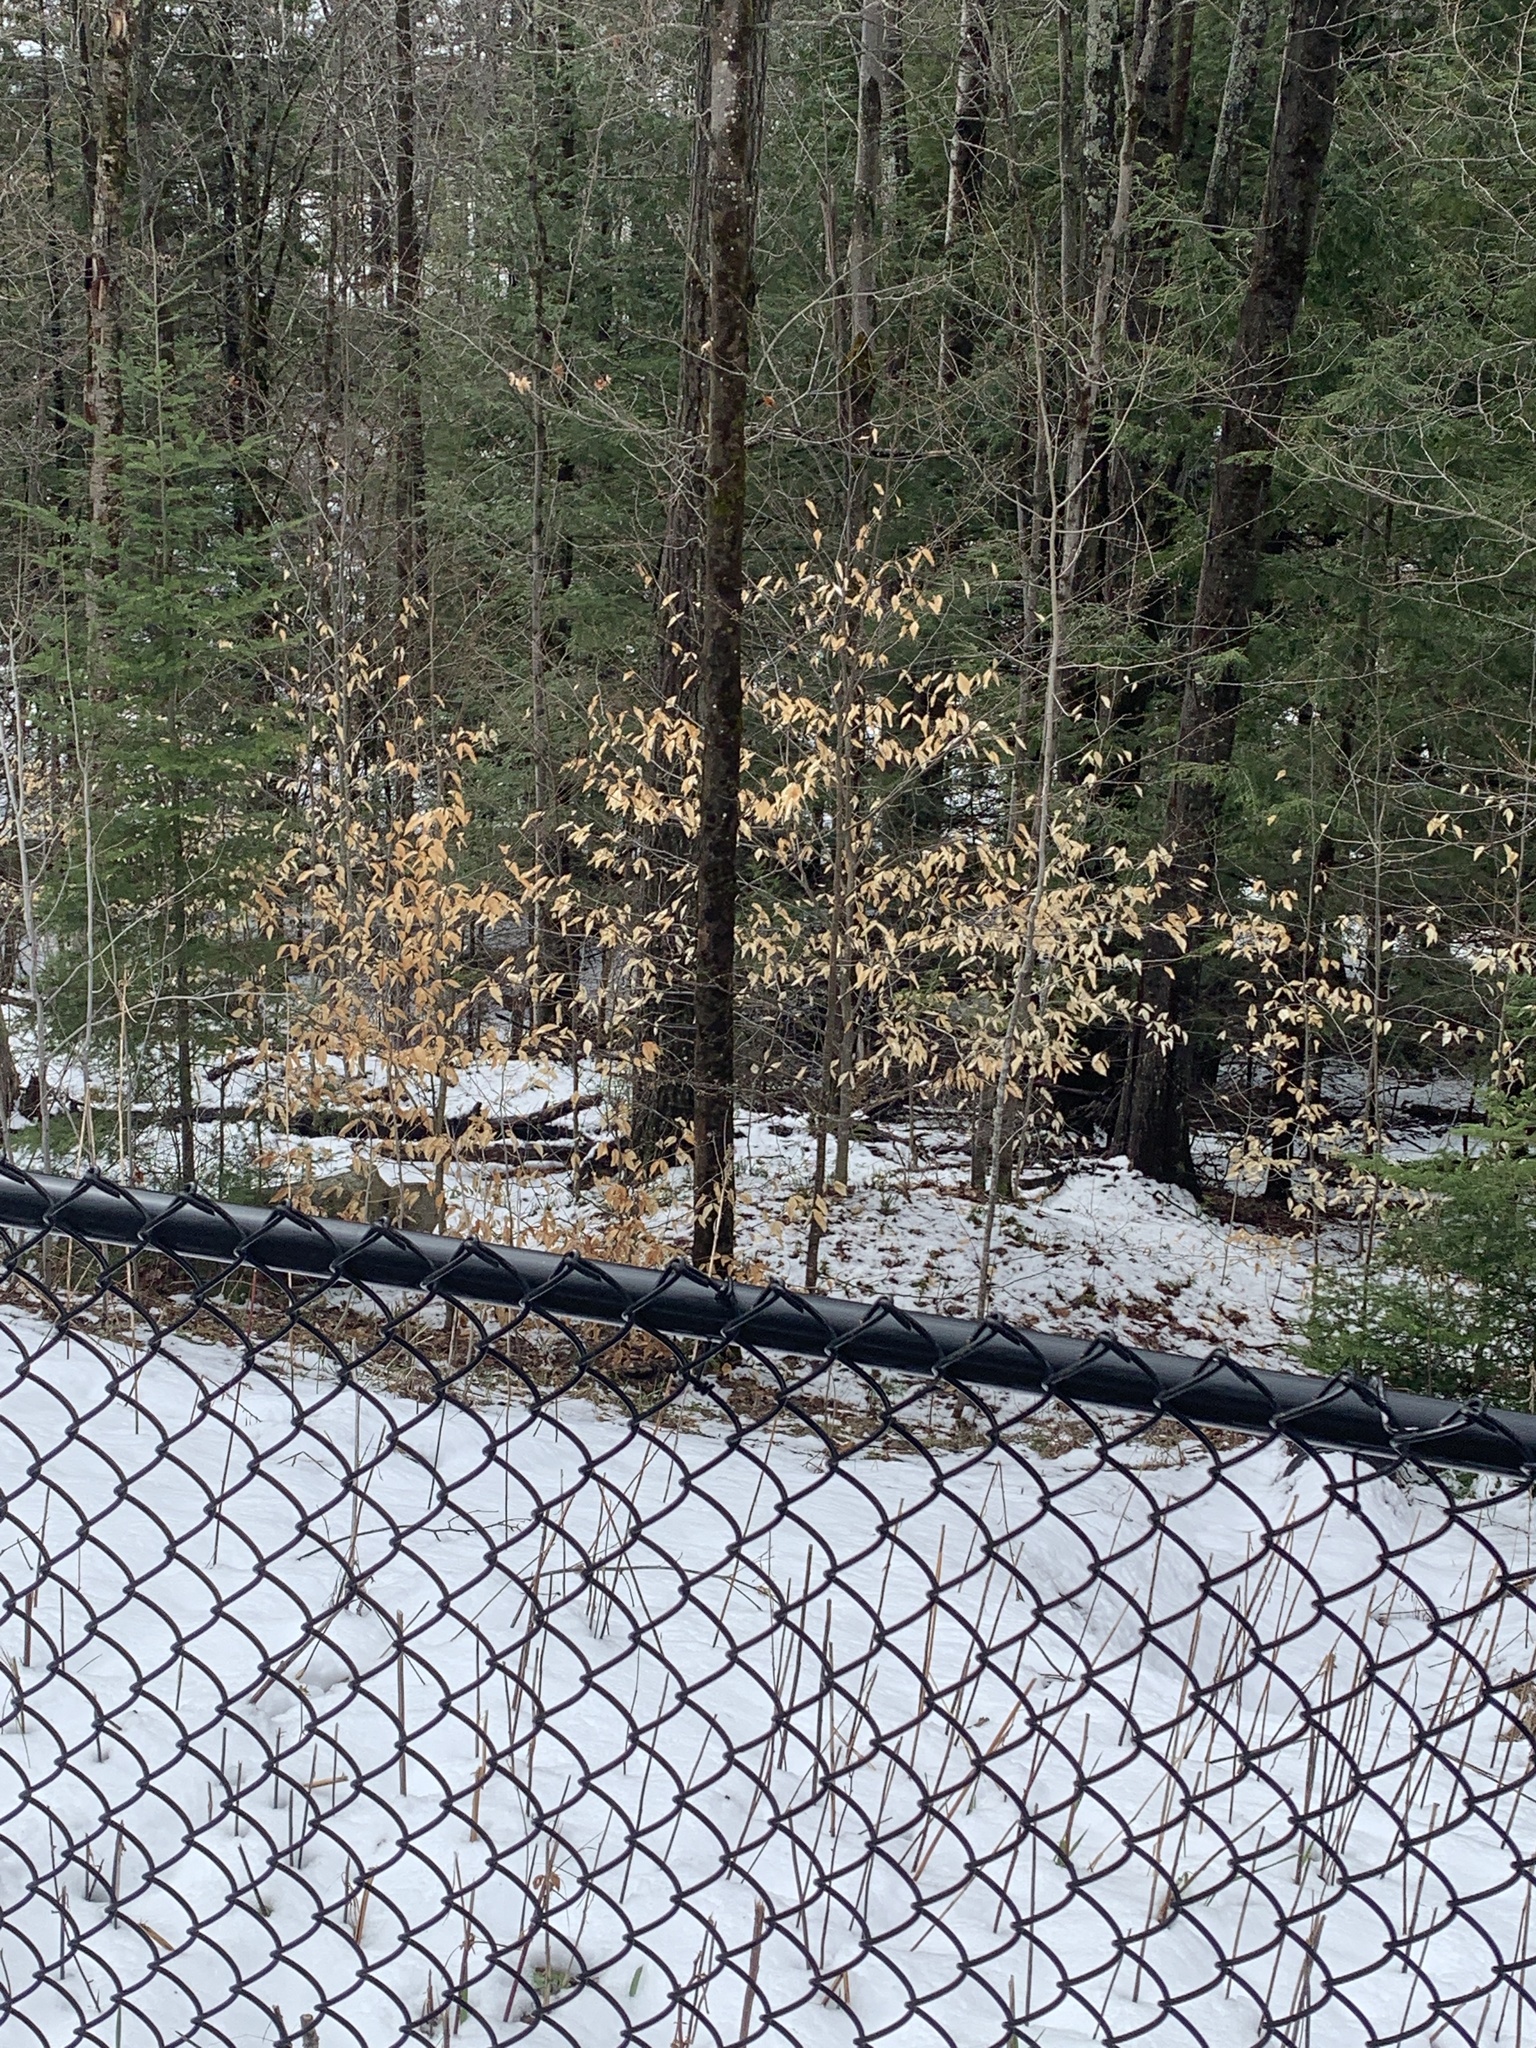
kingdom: Plantae
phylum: Tracheophyta
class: Magnoliopsida
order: Fagales
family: Fagaceae
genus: Fagus
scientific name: Fagus grandifolia
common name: American beech
